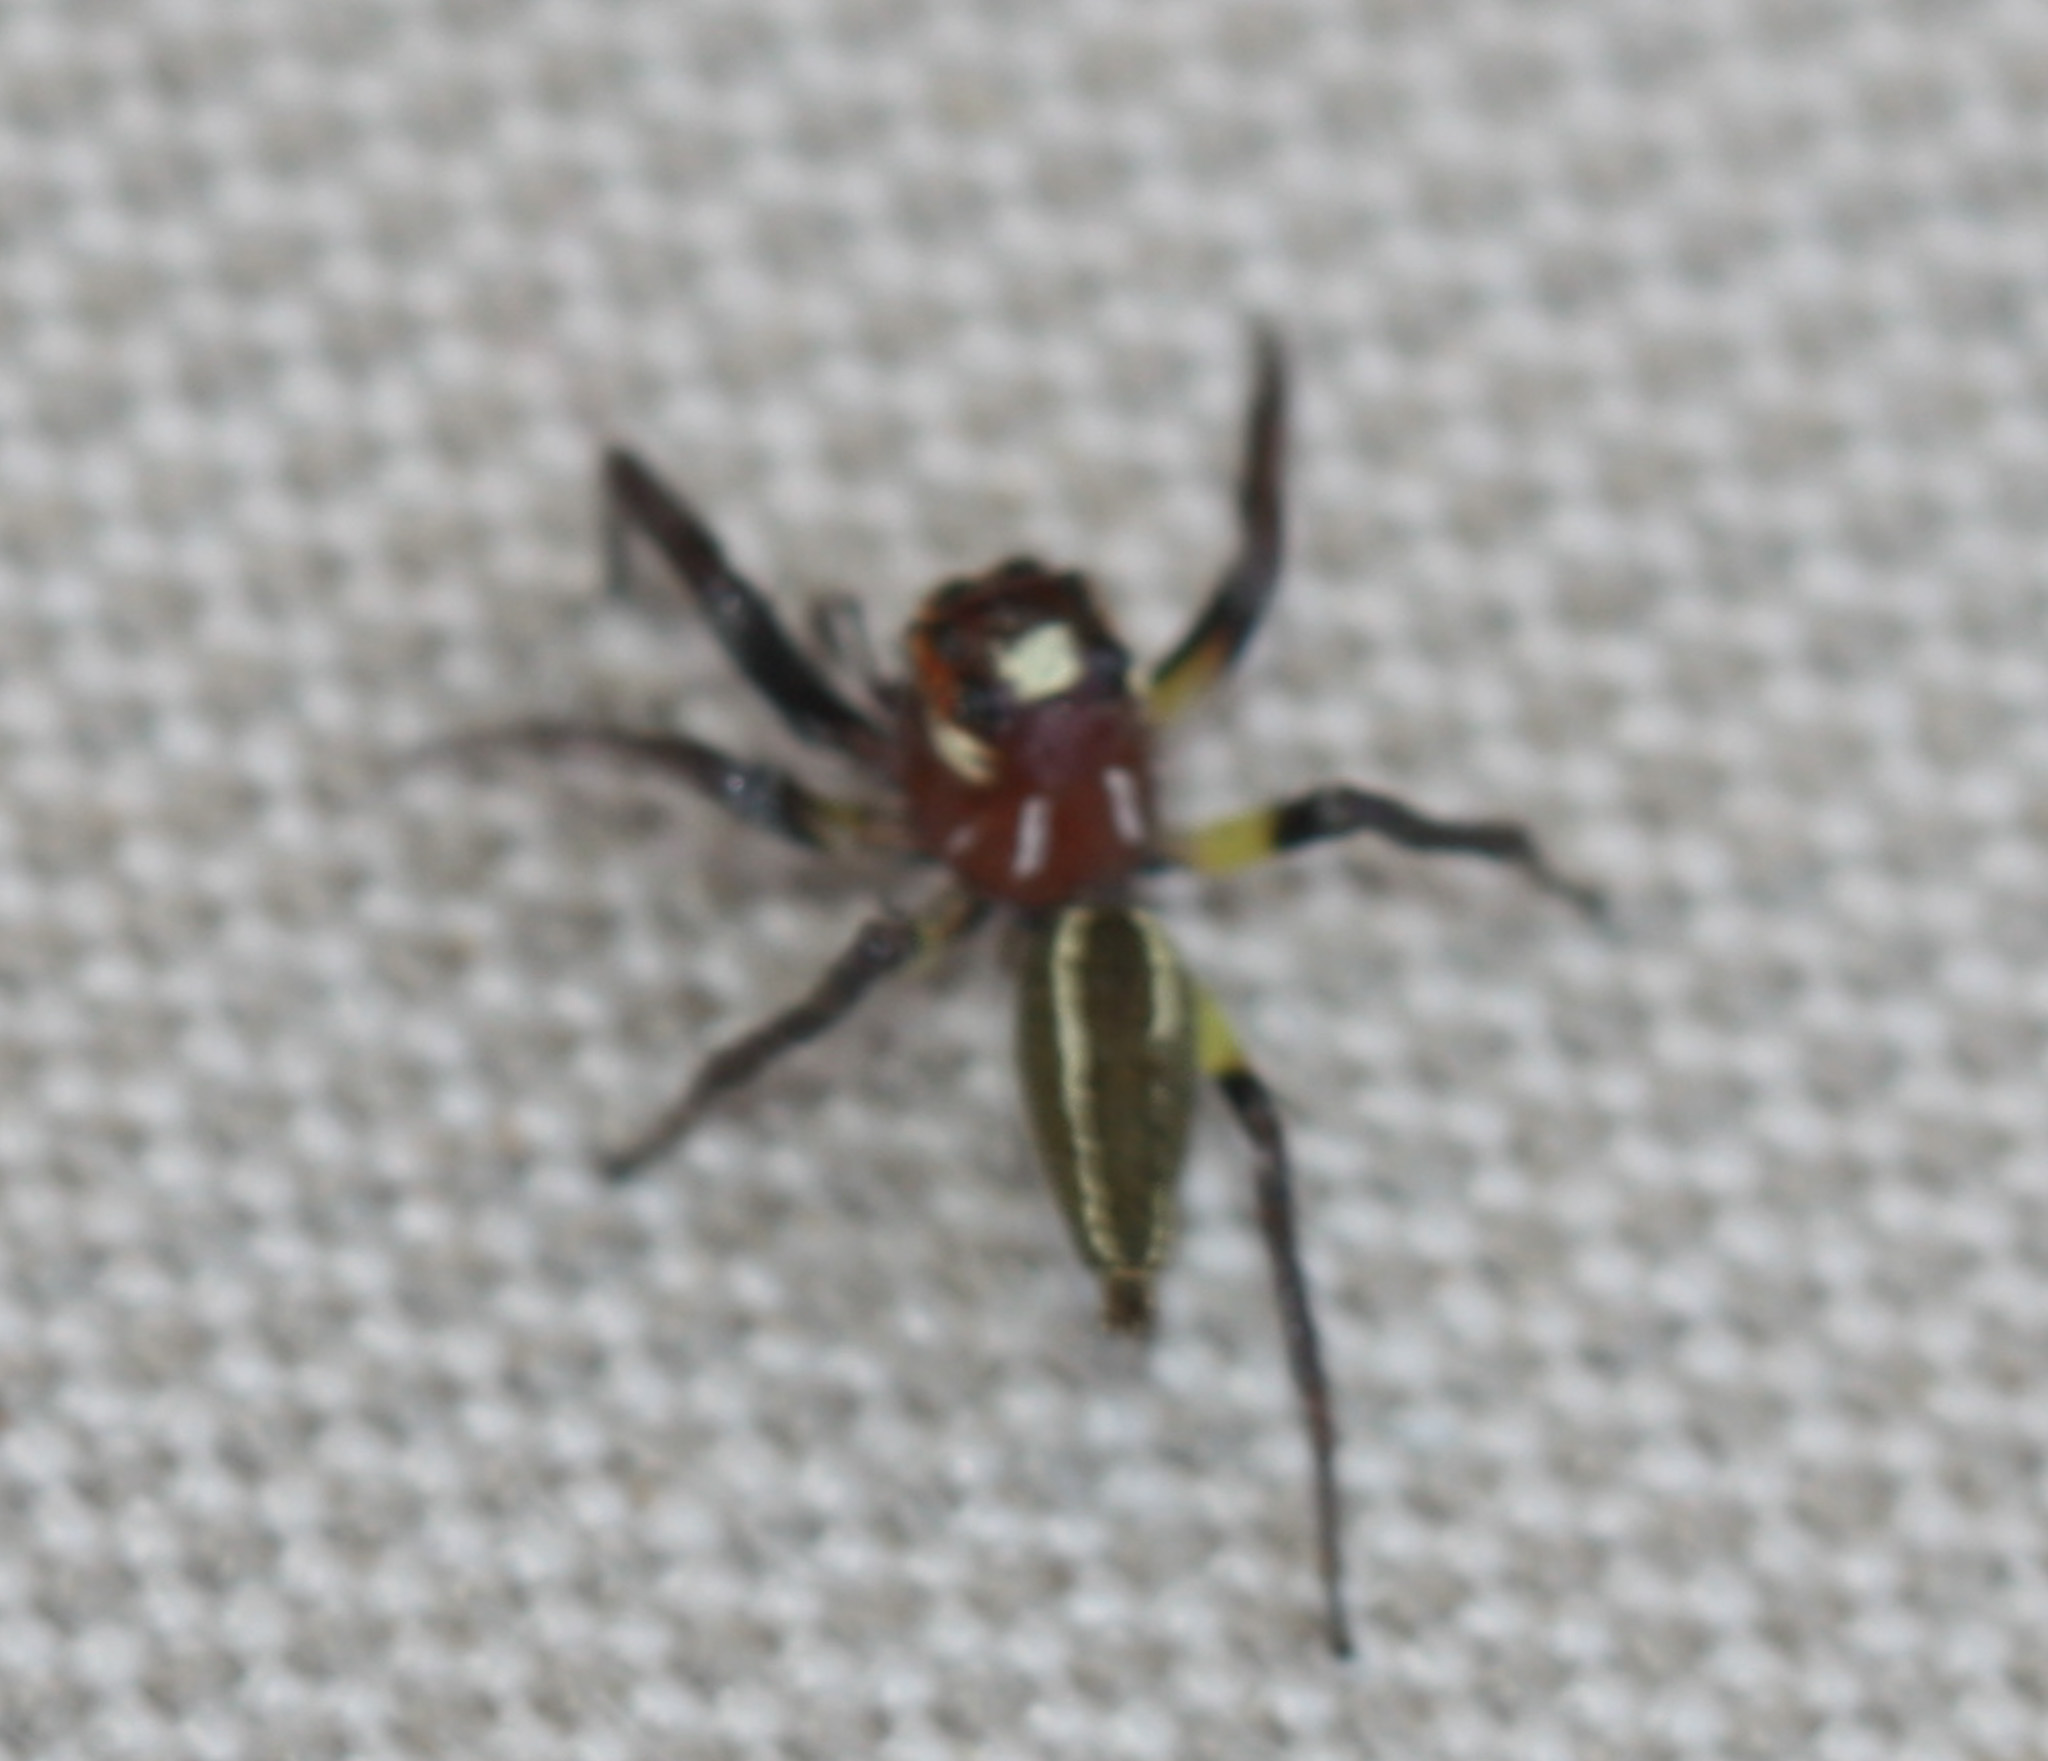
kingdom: Animalia
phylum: Arthropoda
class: Arachnida
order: Araneae
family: Salticidae
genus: Colonus
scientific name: Colonus sylvanus
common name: Jumping spiders
